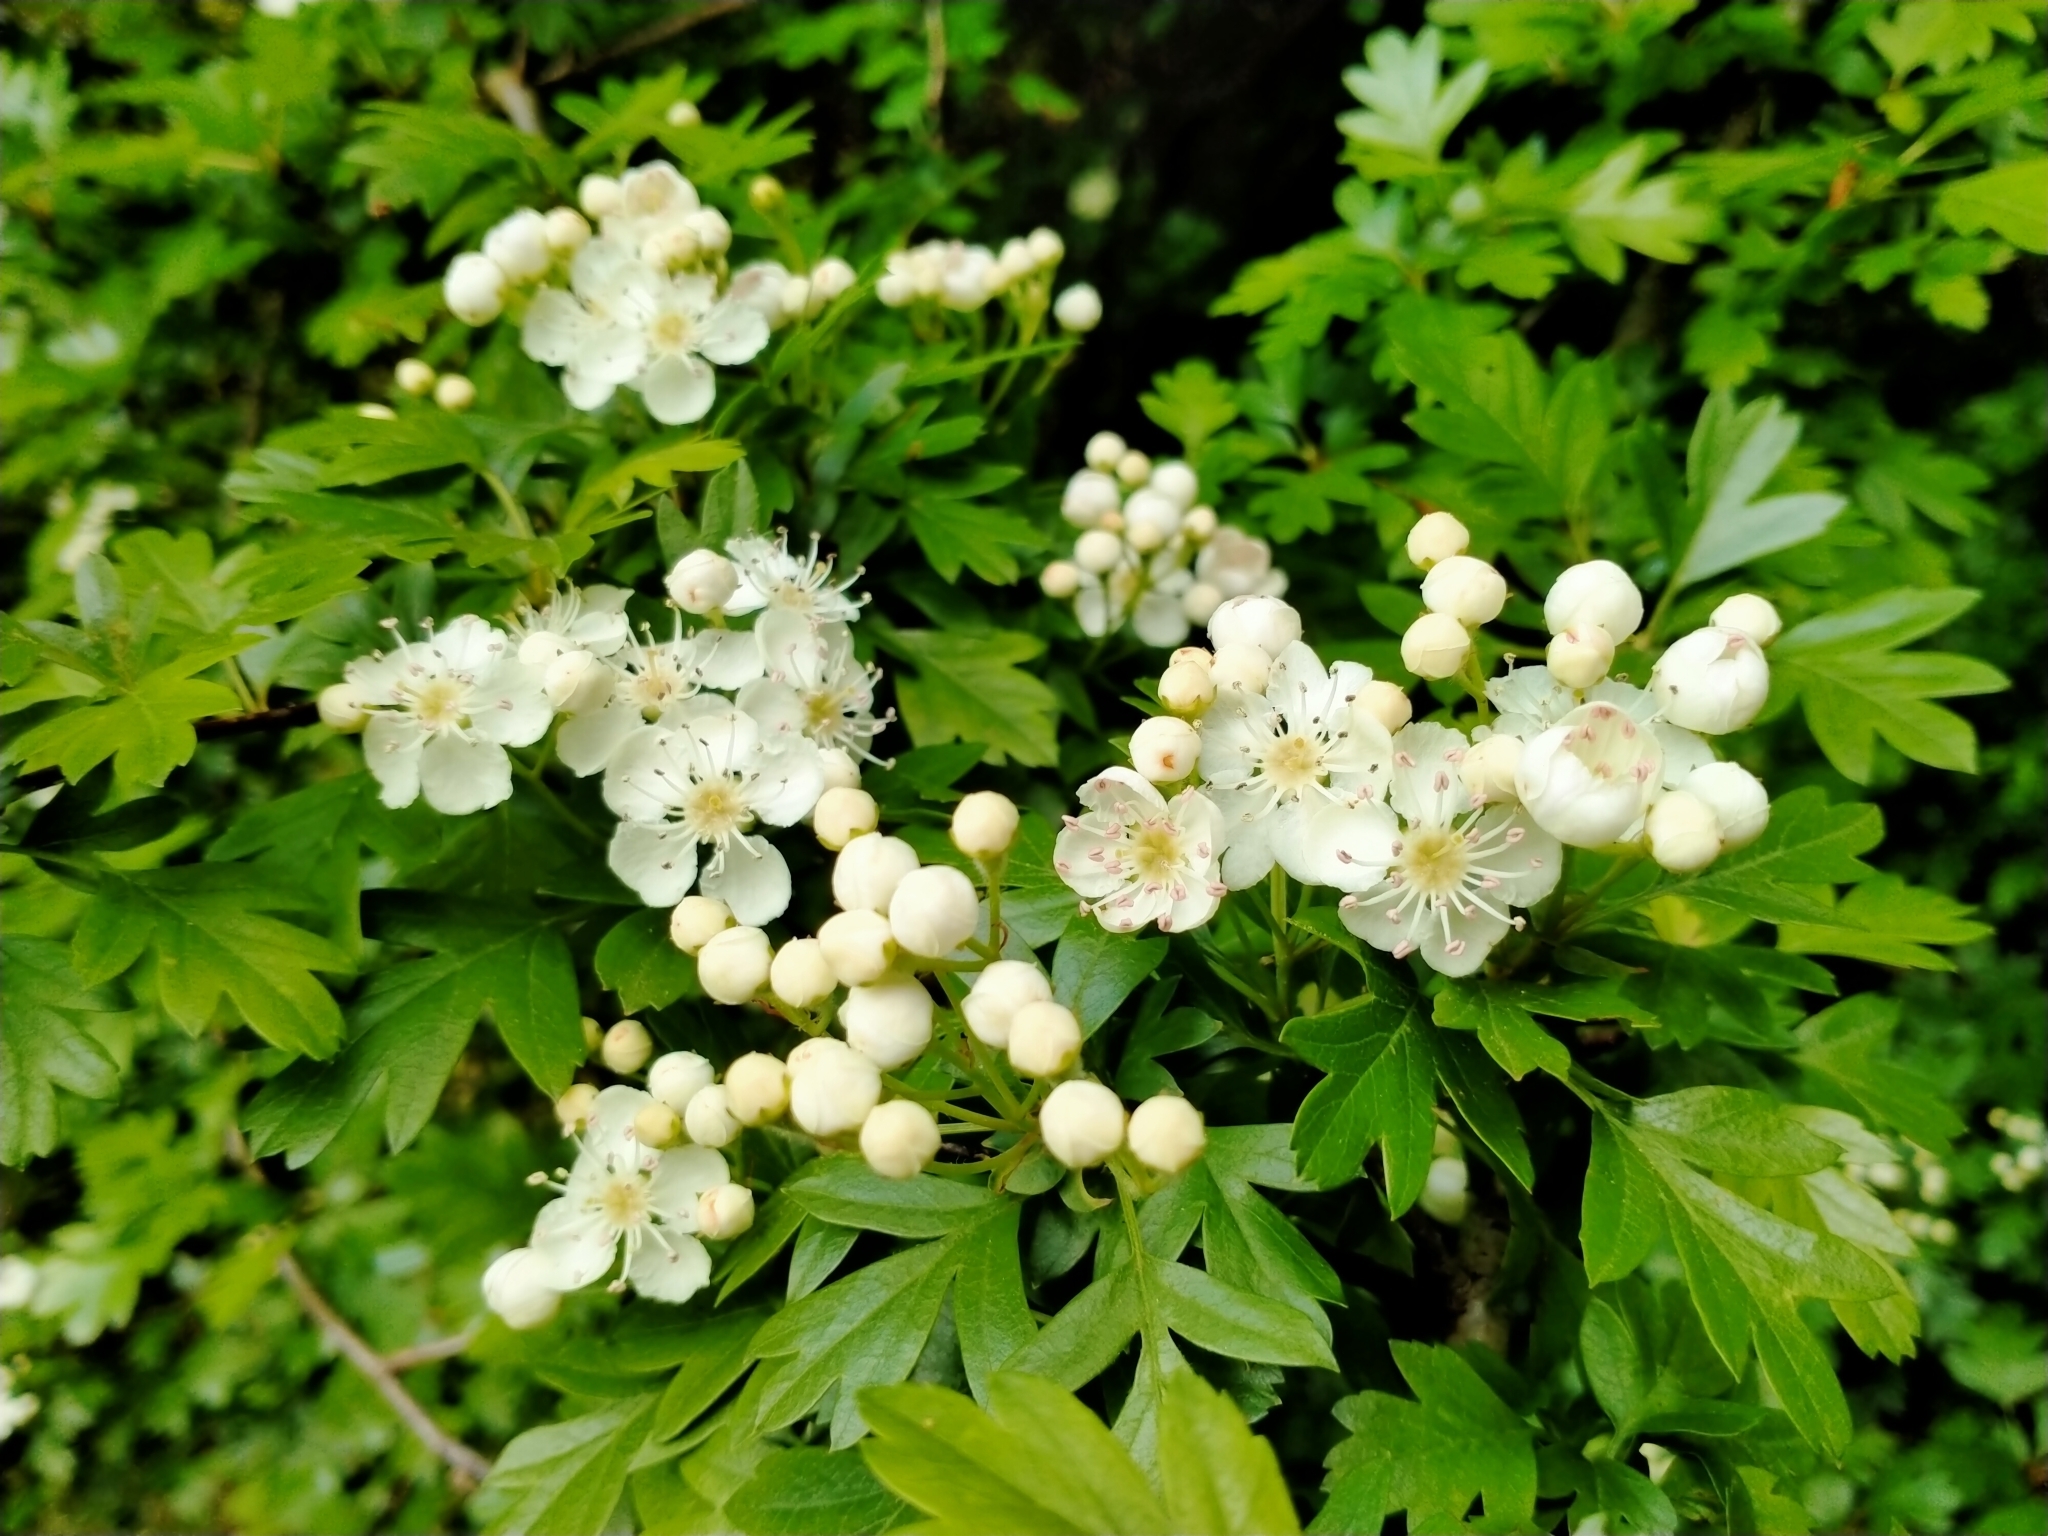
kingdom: Plantae
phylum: Tracheophyta
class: Magnoliopsida
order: Rosales
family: Rosaceae
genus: Crataegus
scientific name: Crataegus monogyna
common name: Hawthorn
